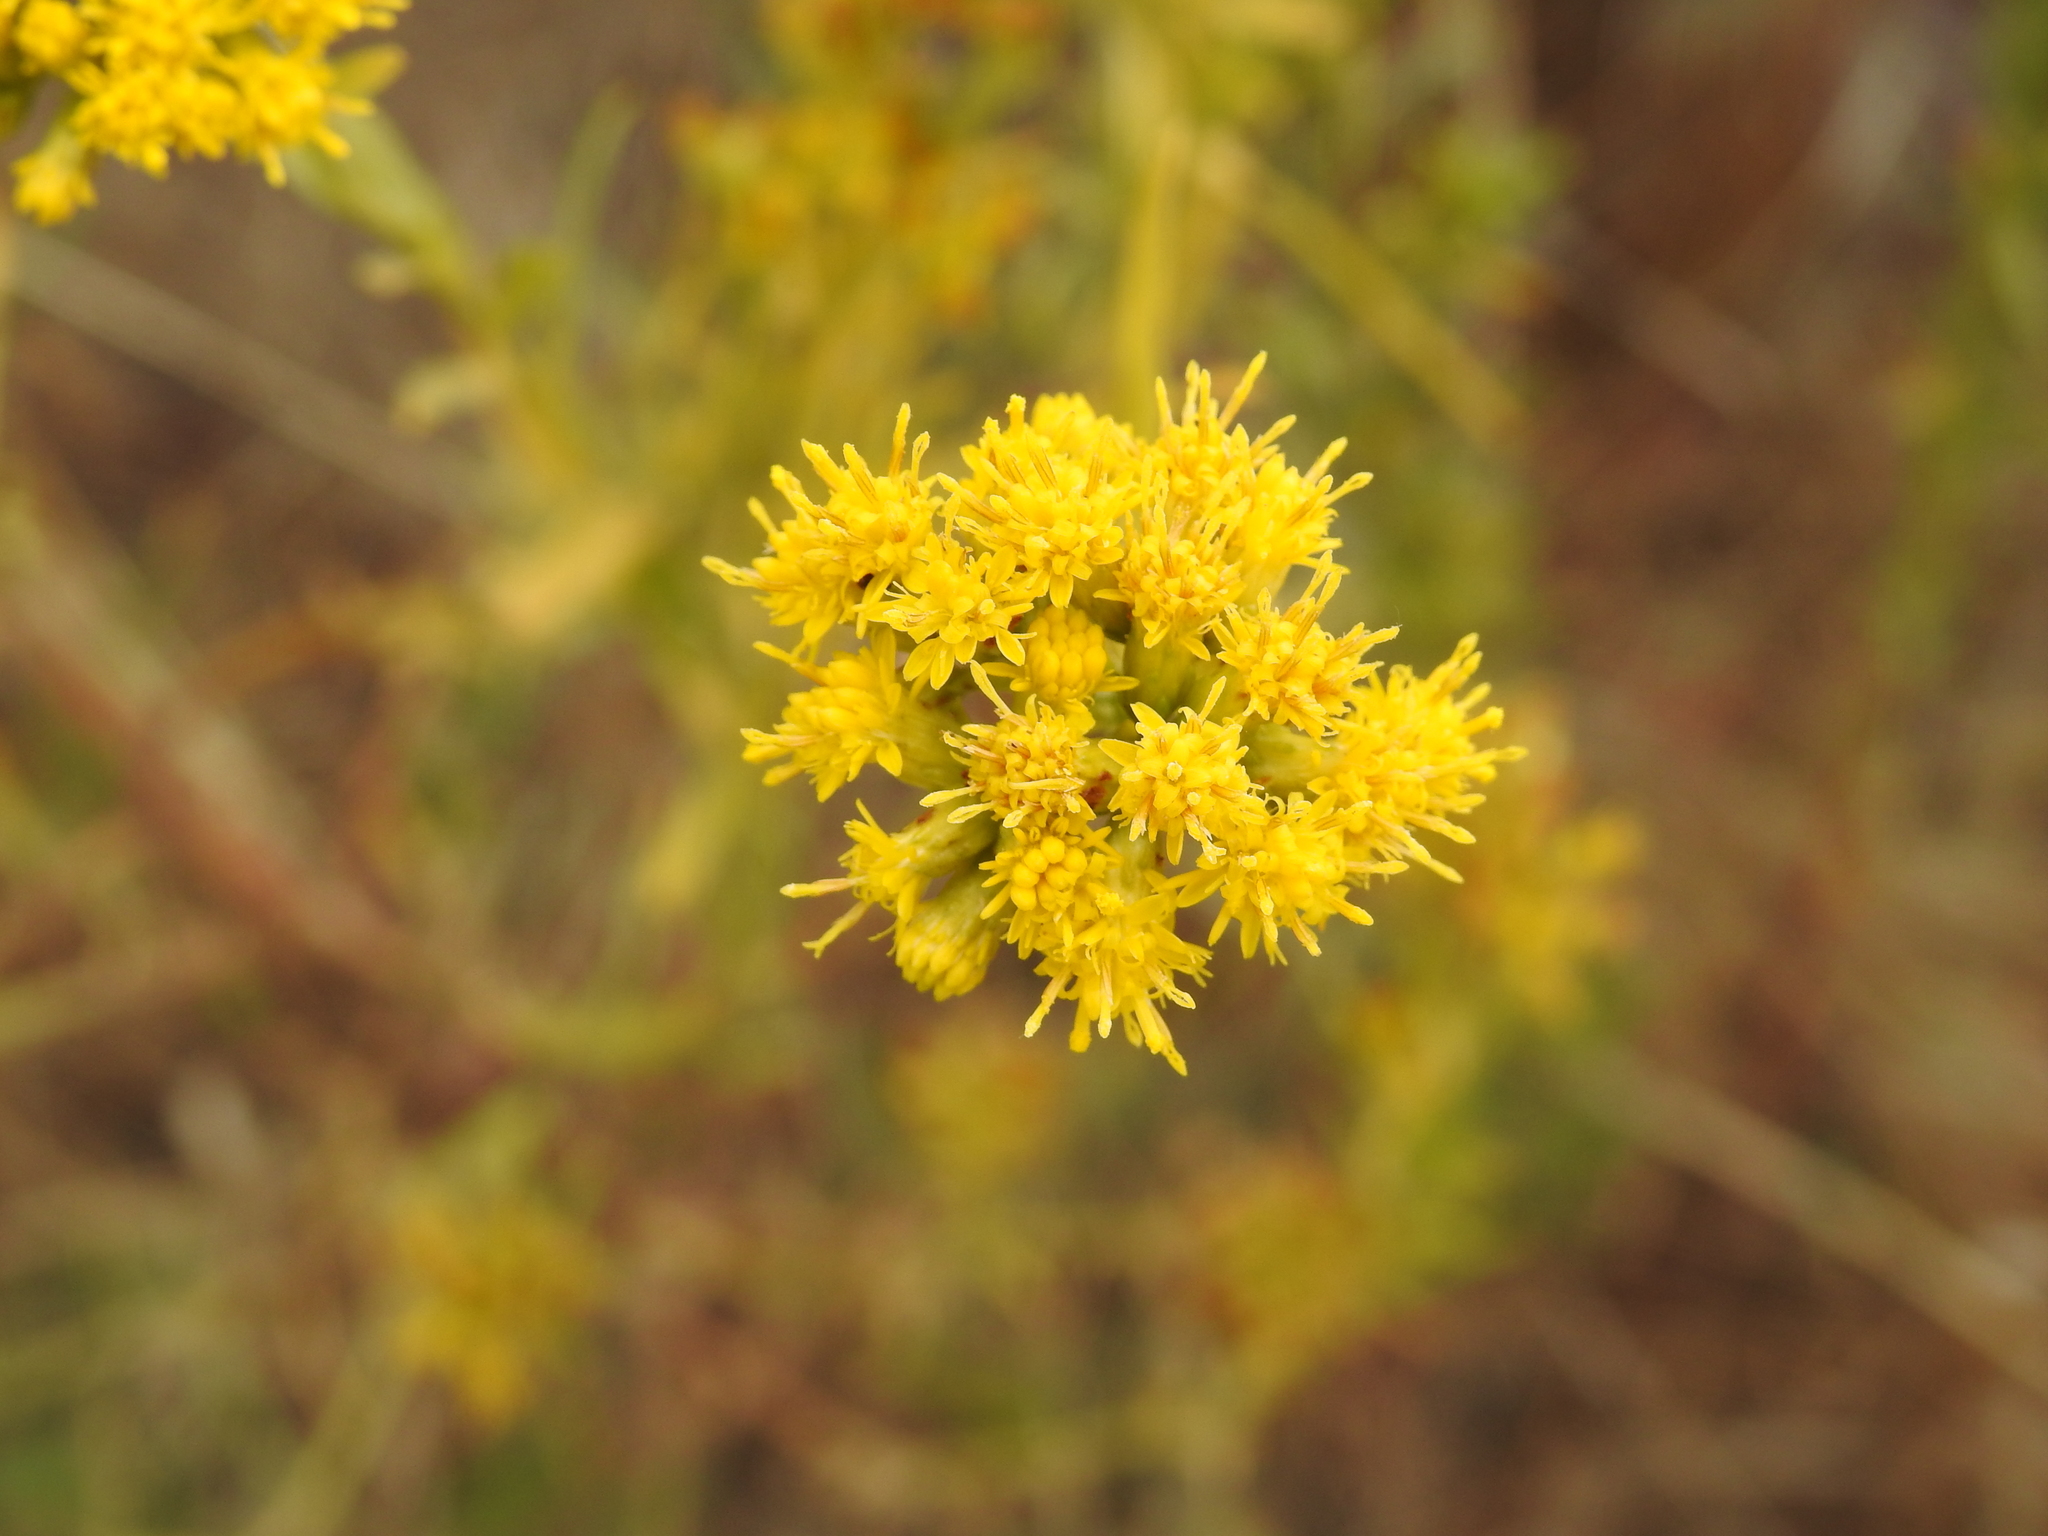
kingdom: Plantae
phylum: Tracheophyta
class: Magnoliopsida
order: Asterales
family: Asteraceae
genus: Euthamia
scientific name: Euthamia occidentalis
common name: Western goldentop
